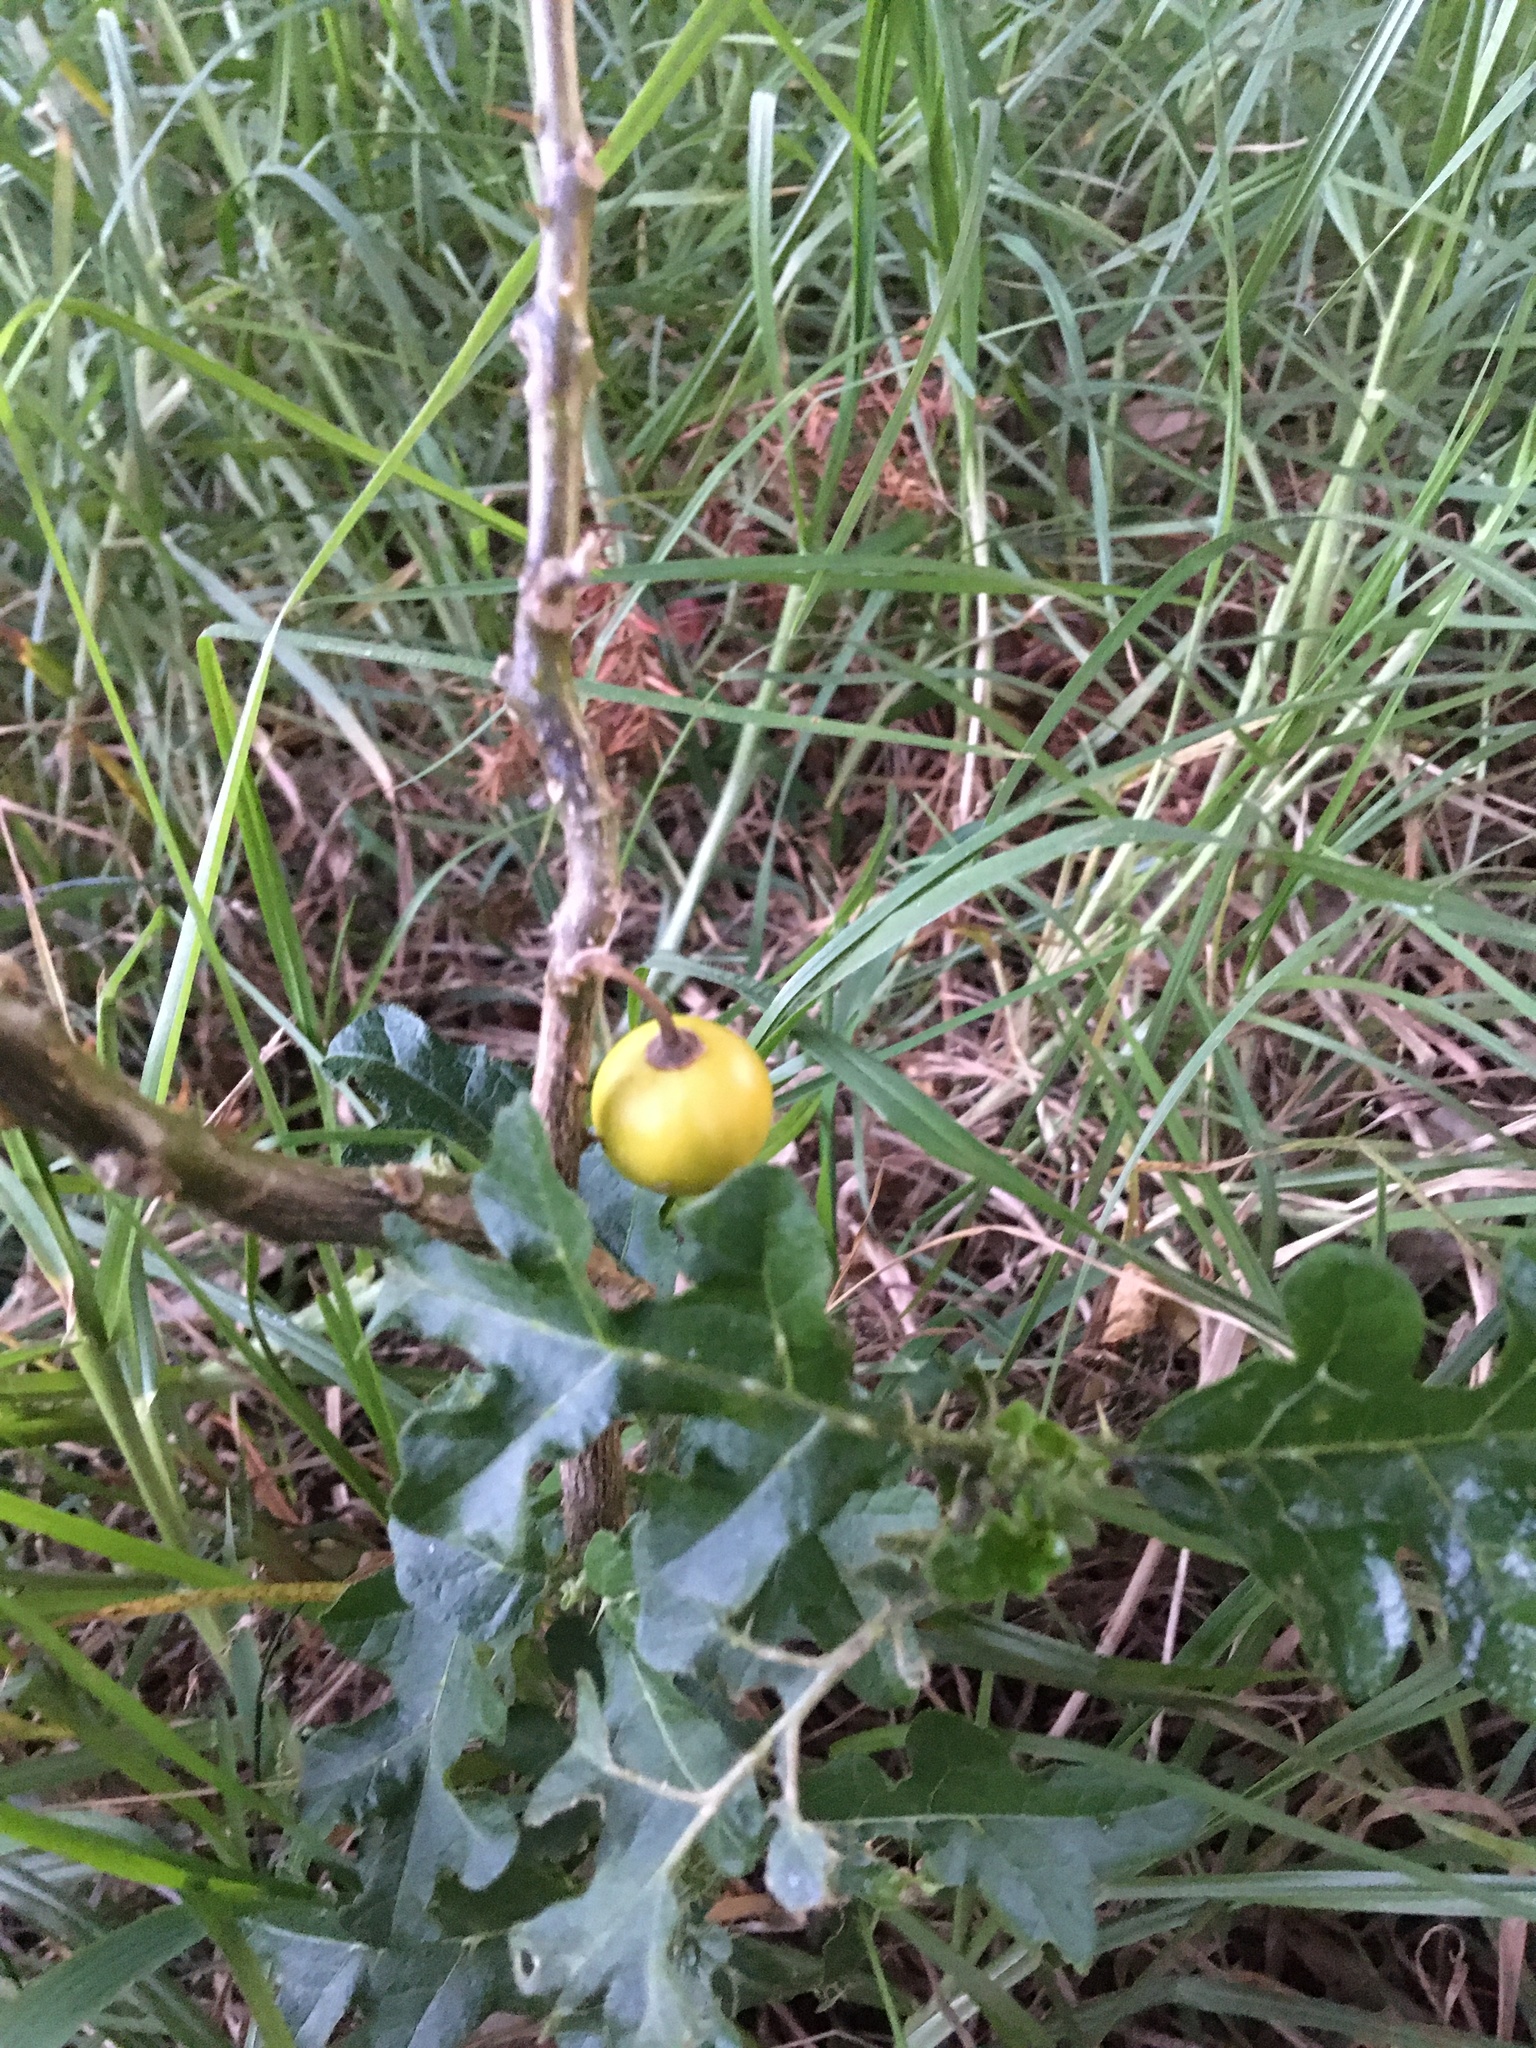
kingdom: Plantae
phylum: Tracheophyta
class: Magnoliopsida
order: Solanales
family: Solanaceae
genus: Solanum
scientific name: Solanum linnaeanum
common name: Nightshade
